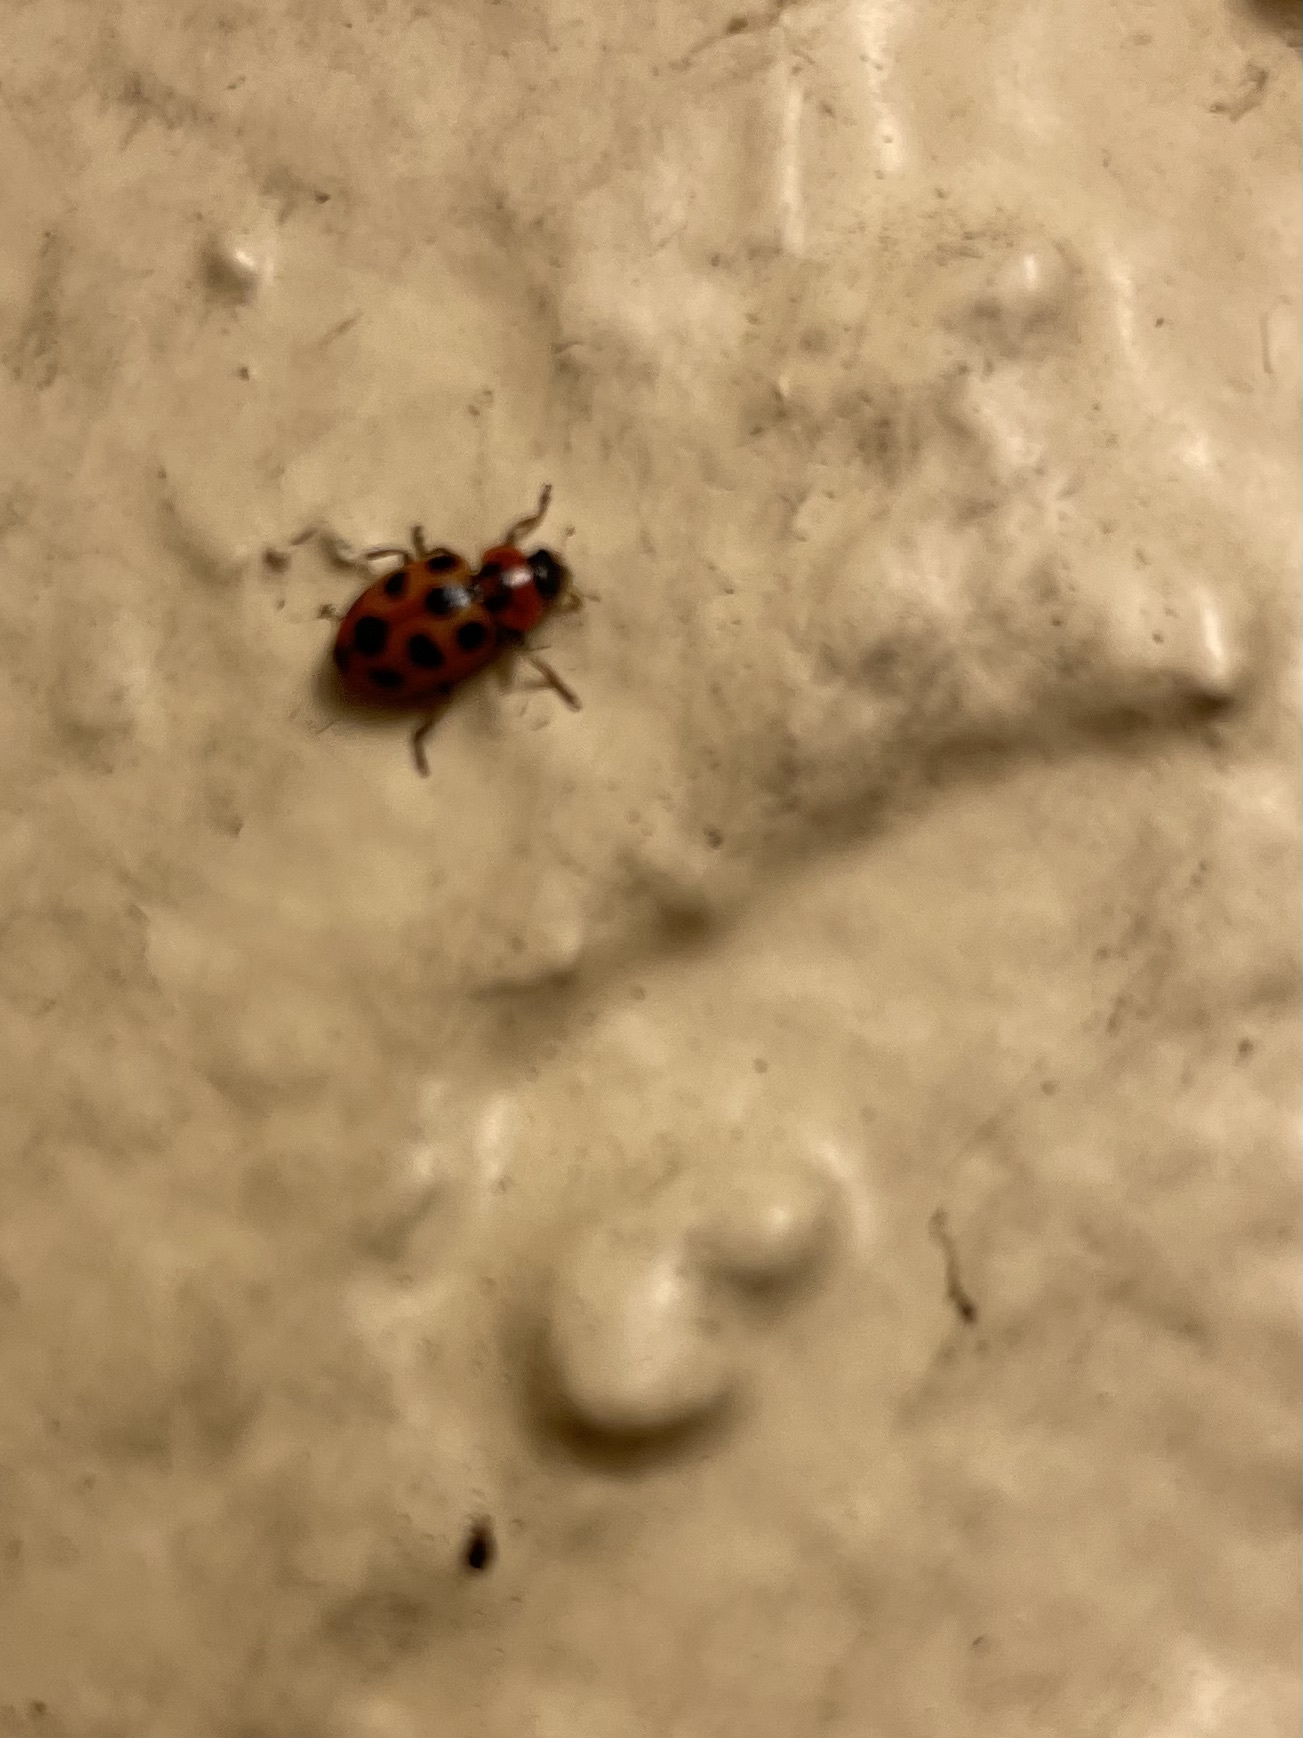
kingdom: Animalia
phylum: Arthropoda
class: Insecta
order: Coleoptera
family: Coccinellidae
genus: Naemia
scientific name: Naemia seriata
